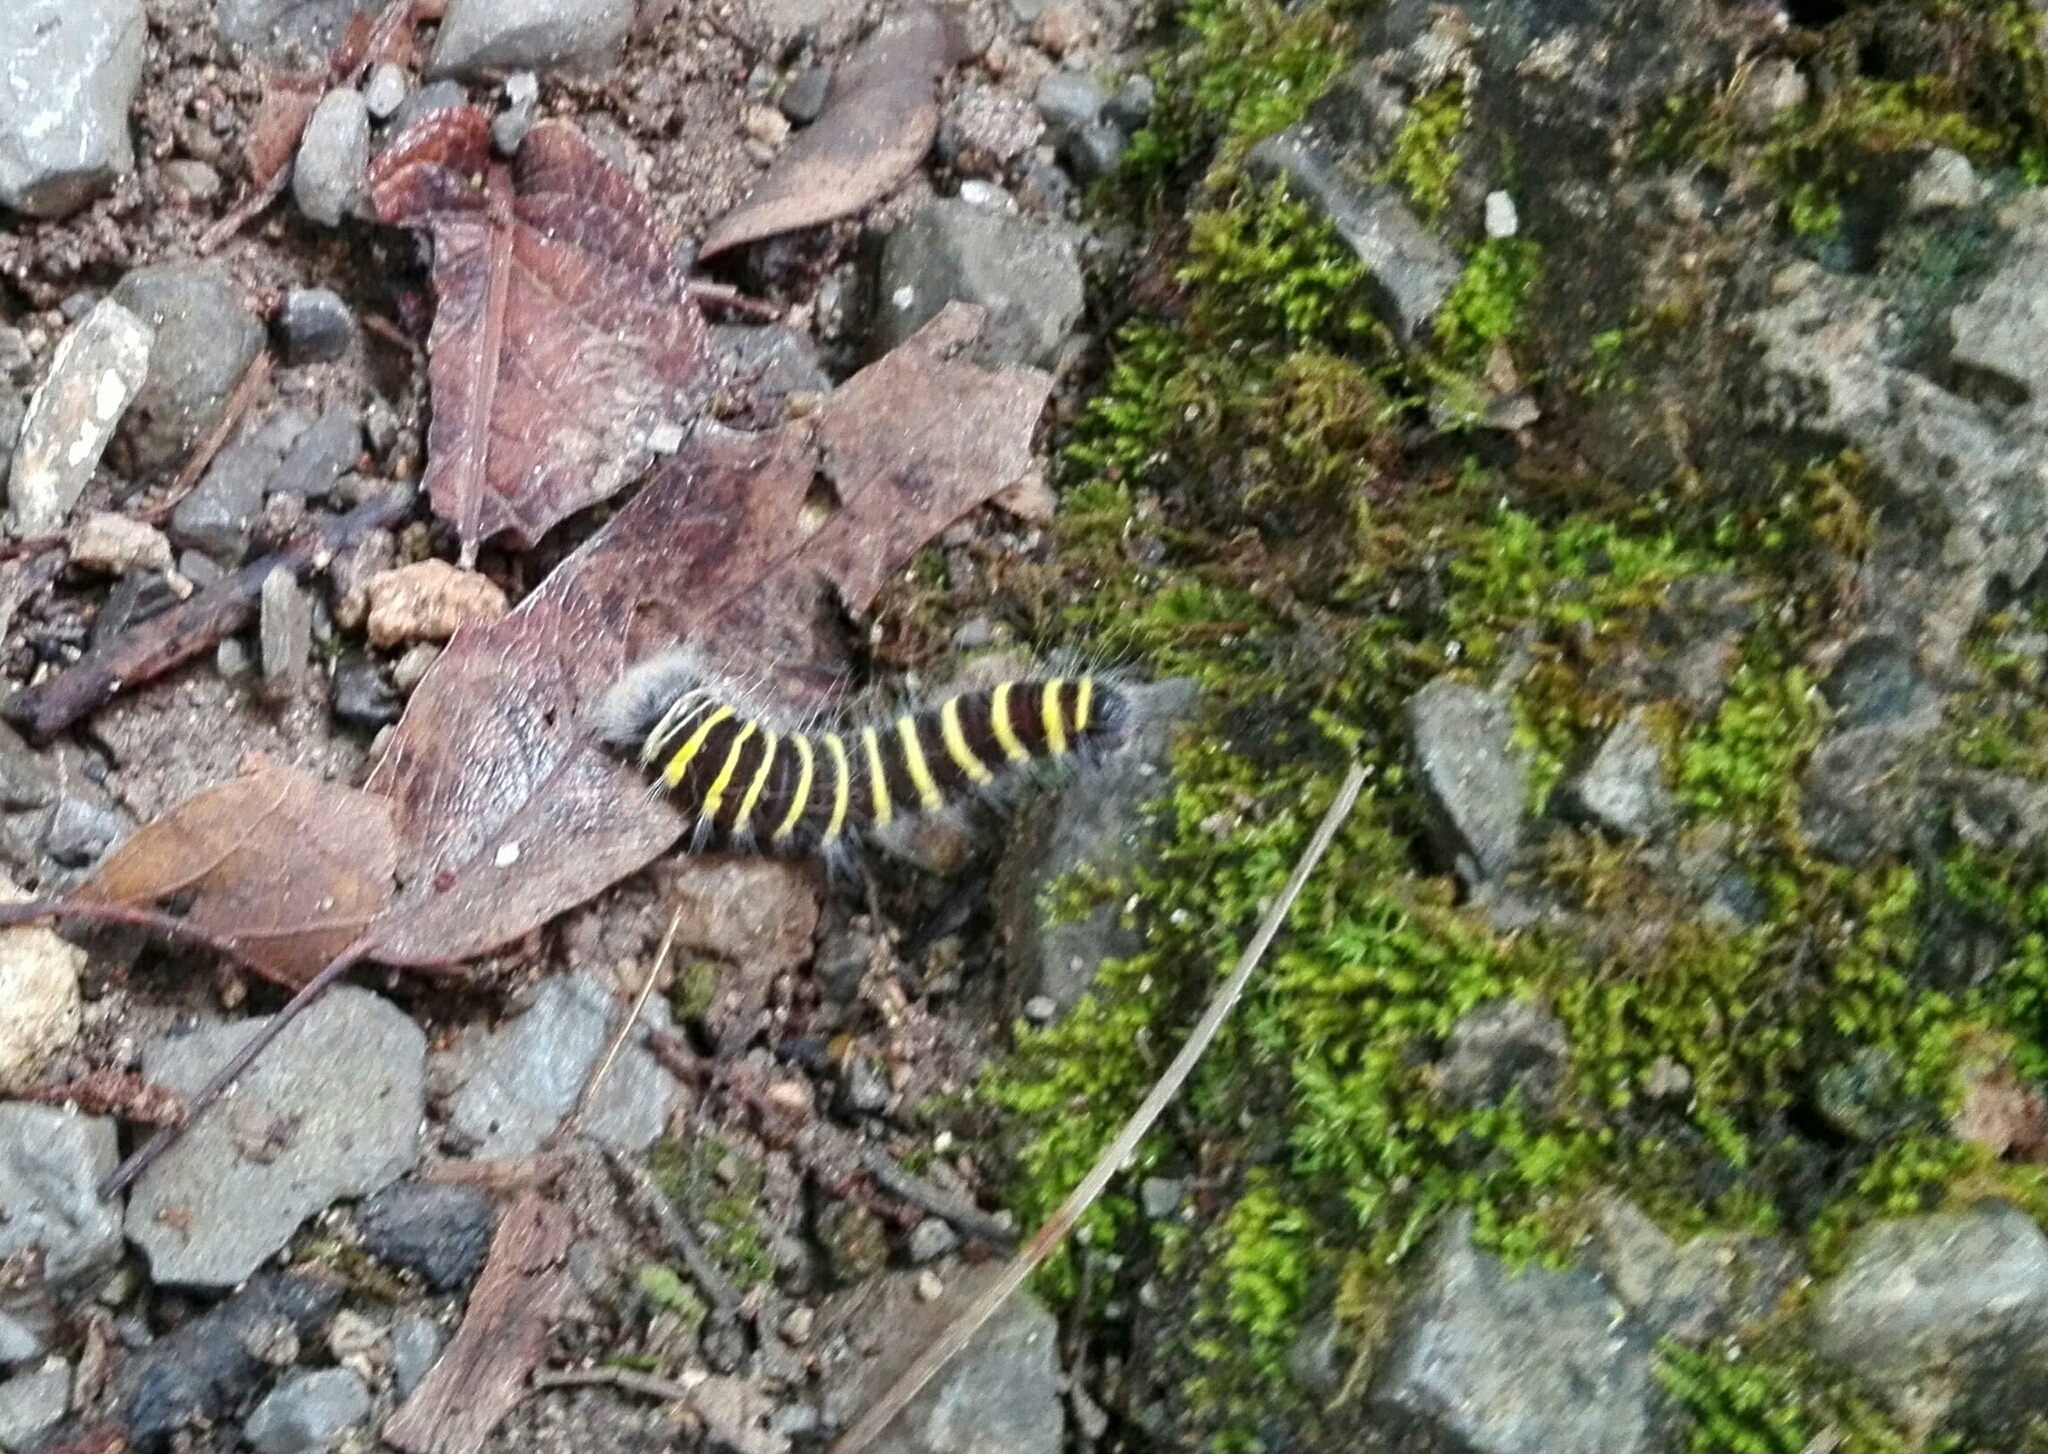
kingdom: Animalia
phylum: Arthropoda
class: Insecta
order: Lepidoptera
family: Hesperiidae
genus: Pyrrhopyge
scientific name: Pyrrhopyge araxes
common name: Dull firetip
